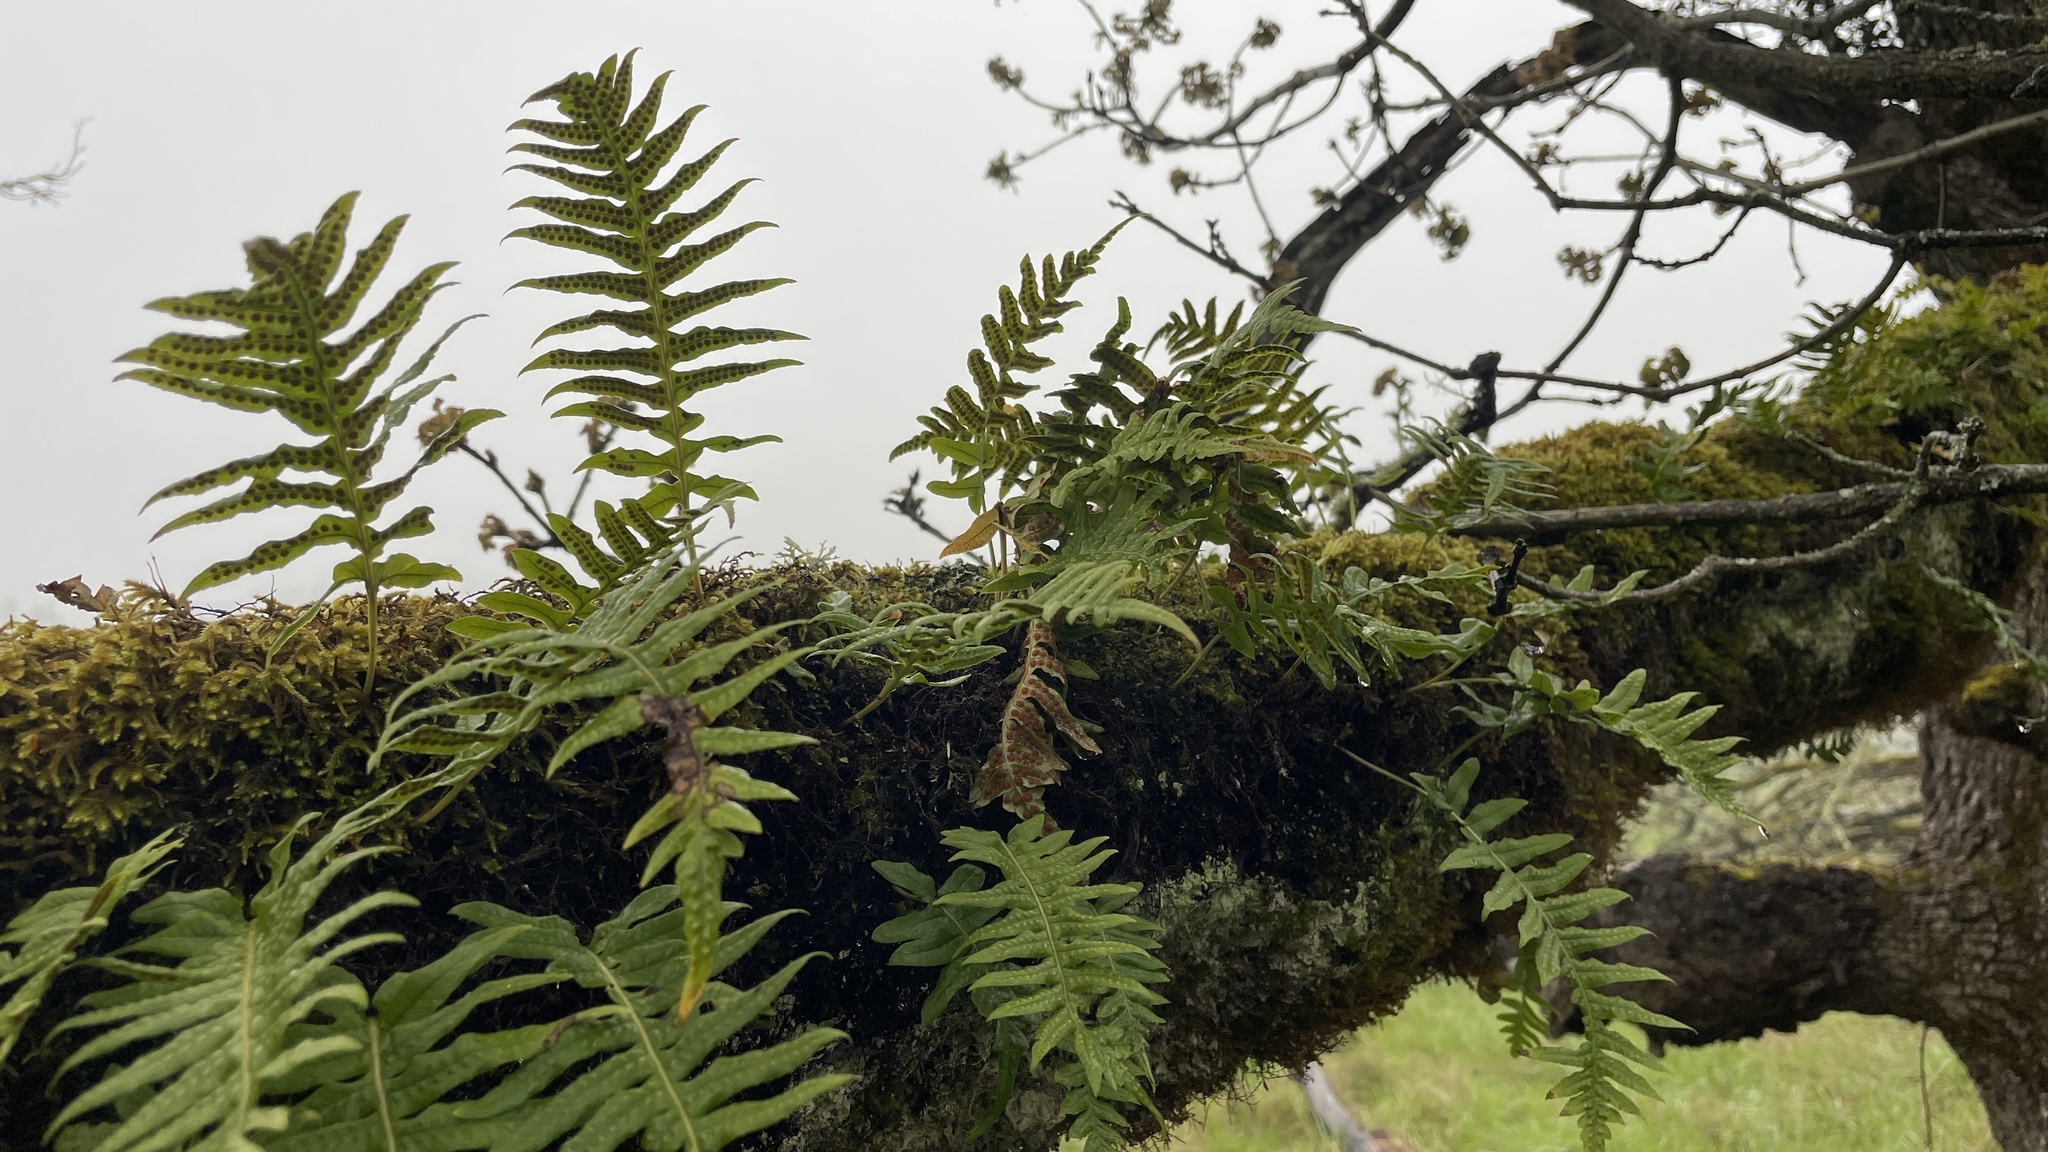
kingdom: Plantae
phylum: Tracheophyta
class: Polypodiopsida
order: Polypodiales
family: Polypodiaceae
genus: Polypodium
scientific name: Polypodium glycyrrhiza
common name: Licorice fern
